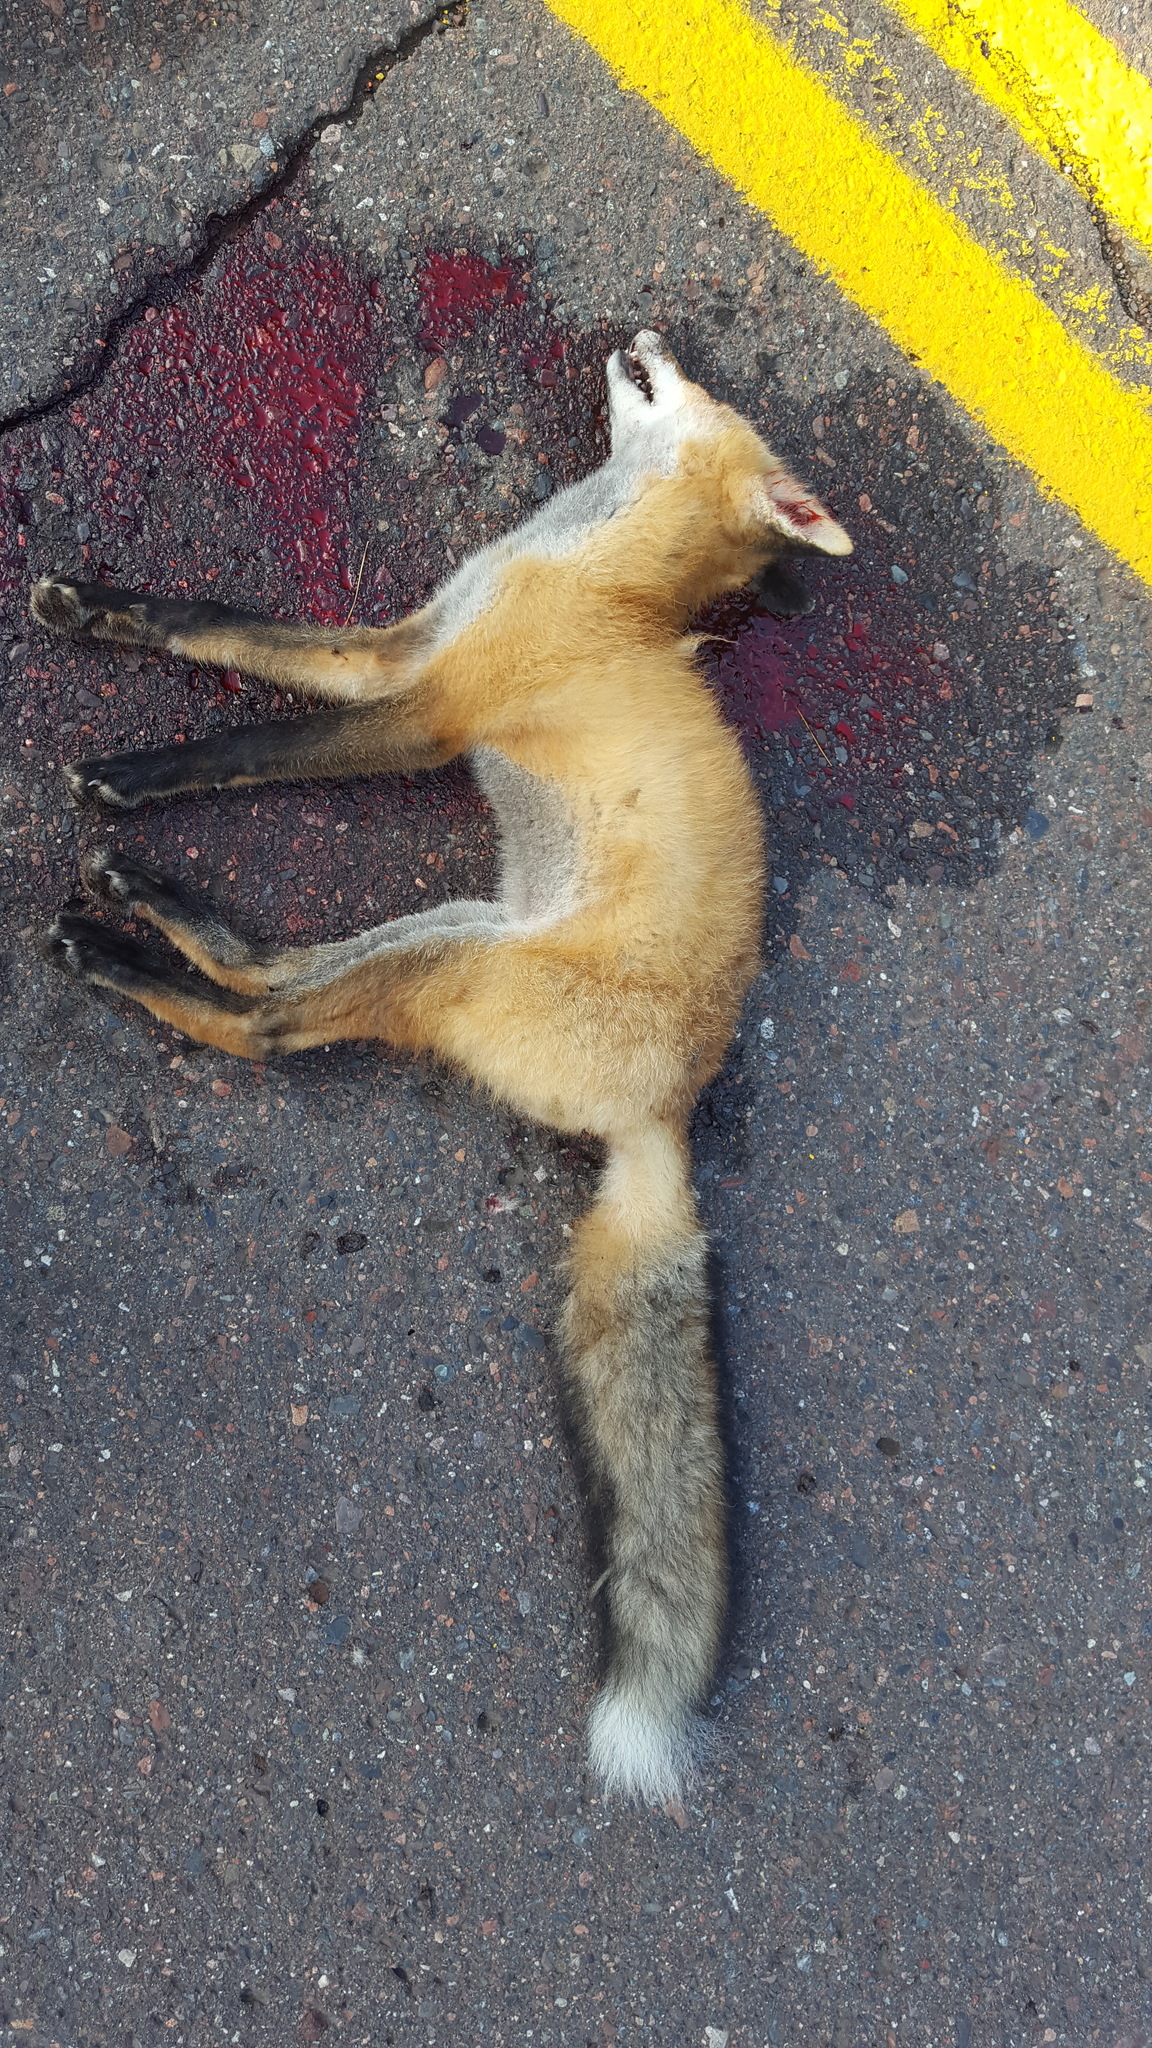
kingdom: Animalia
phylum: Chordata
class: Mammalia
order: Carnivora
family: Canidae
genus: Vulpes
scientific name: Vulpes vulpes
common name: Red fox
